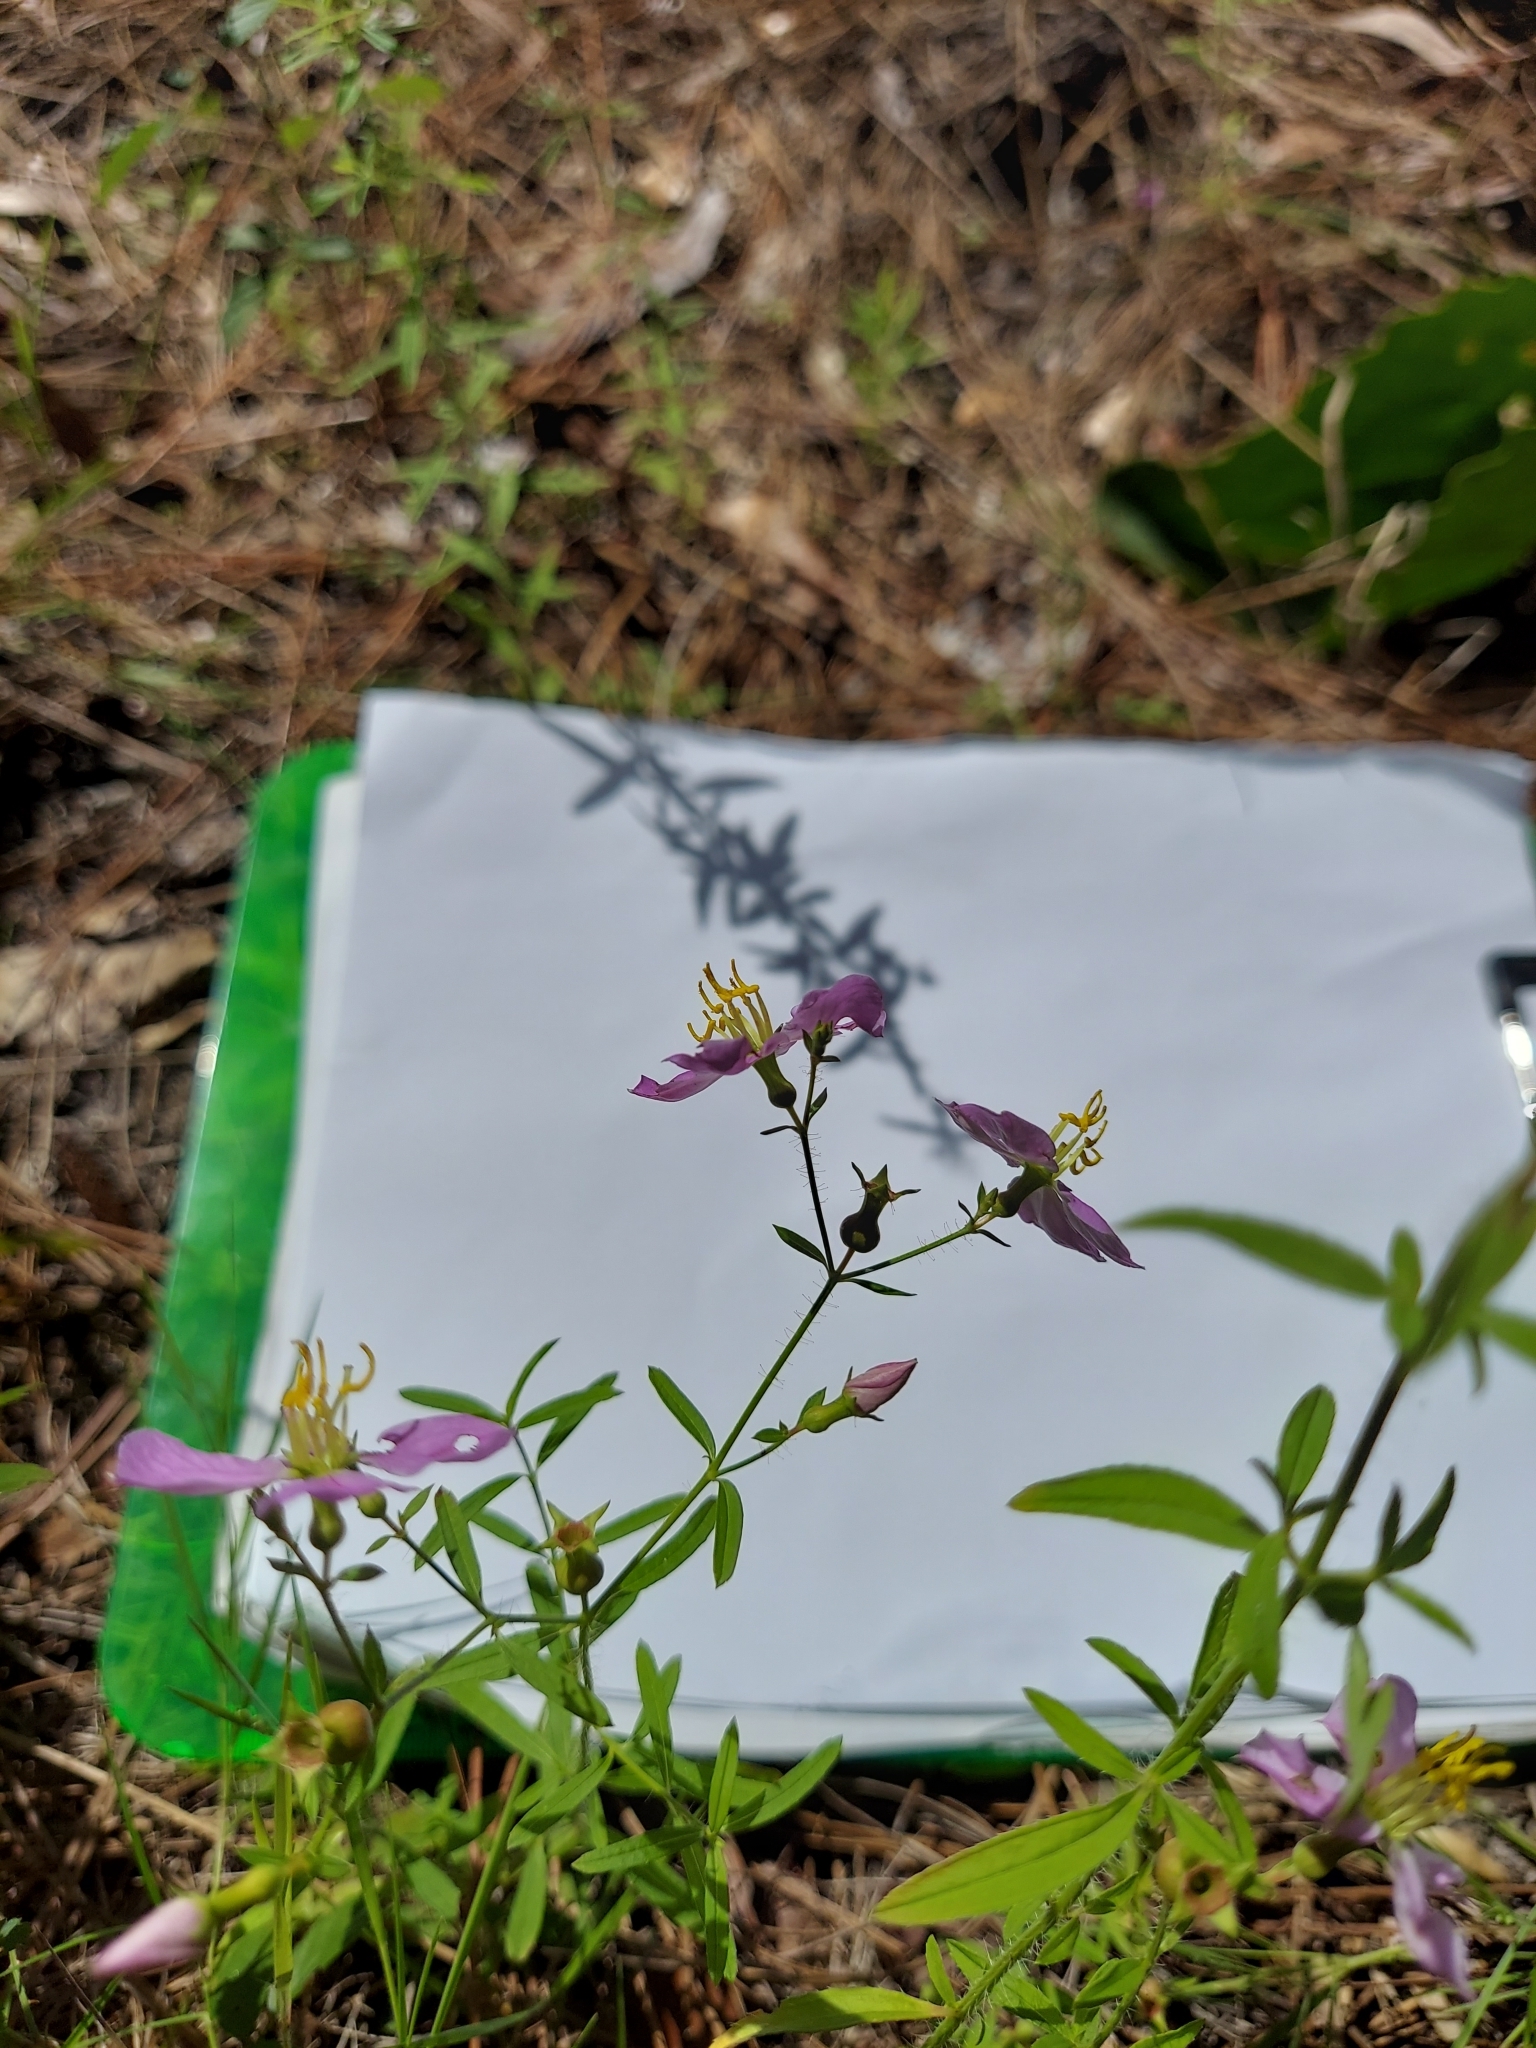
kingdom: Plantae
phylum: Tracheophyta
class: Magnoliopsida
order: Myrtales
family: Melastomataceae
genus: Rhexia
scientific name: Rhexia mariana
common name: Dull meadow-pitcher
